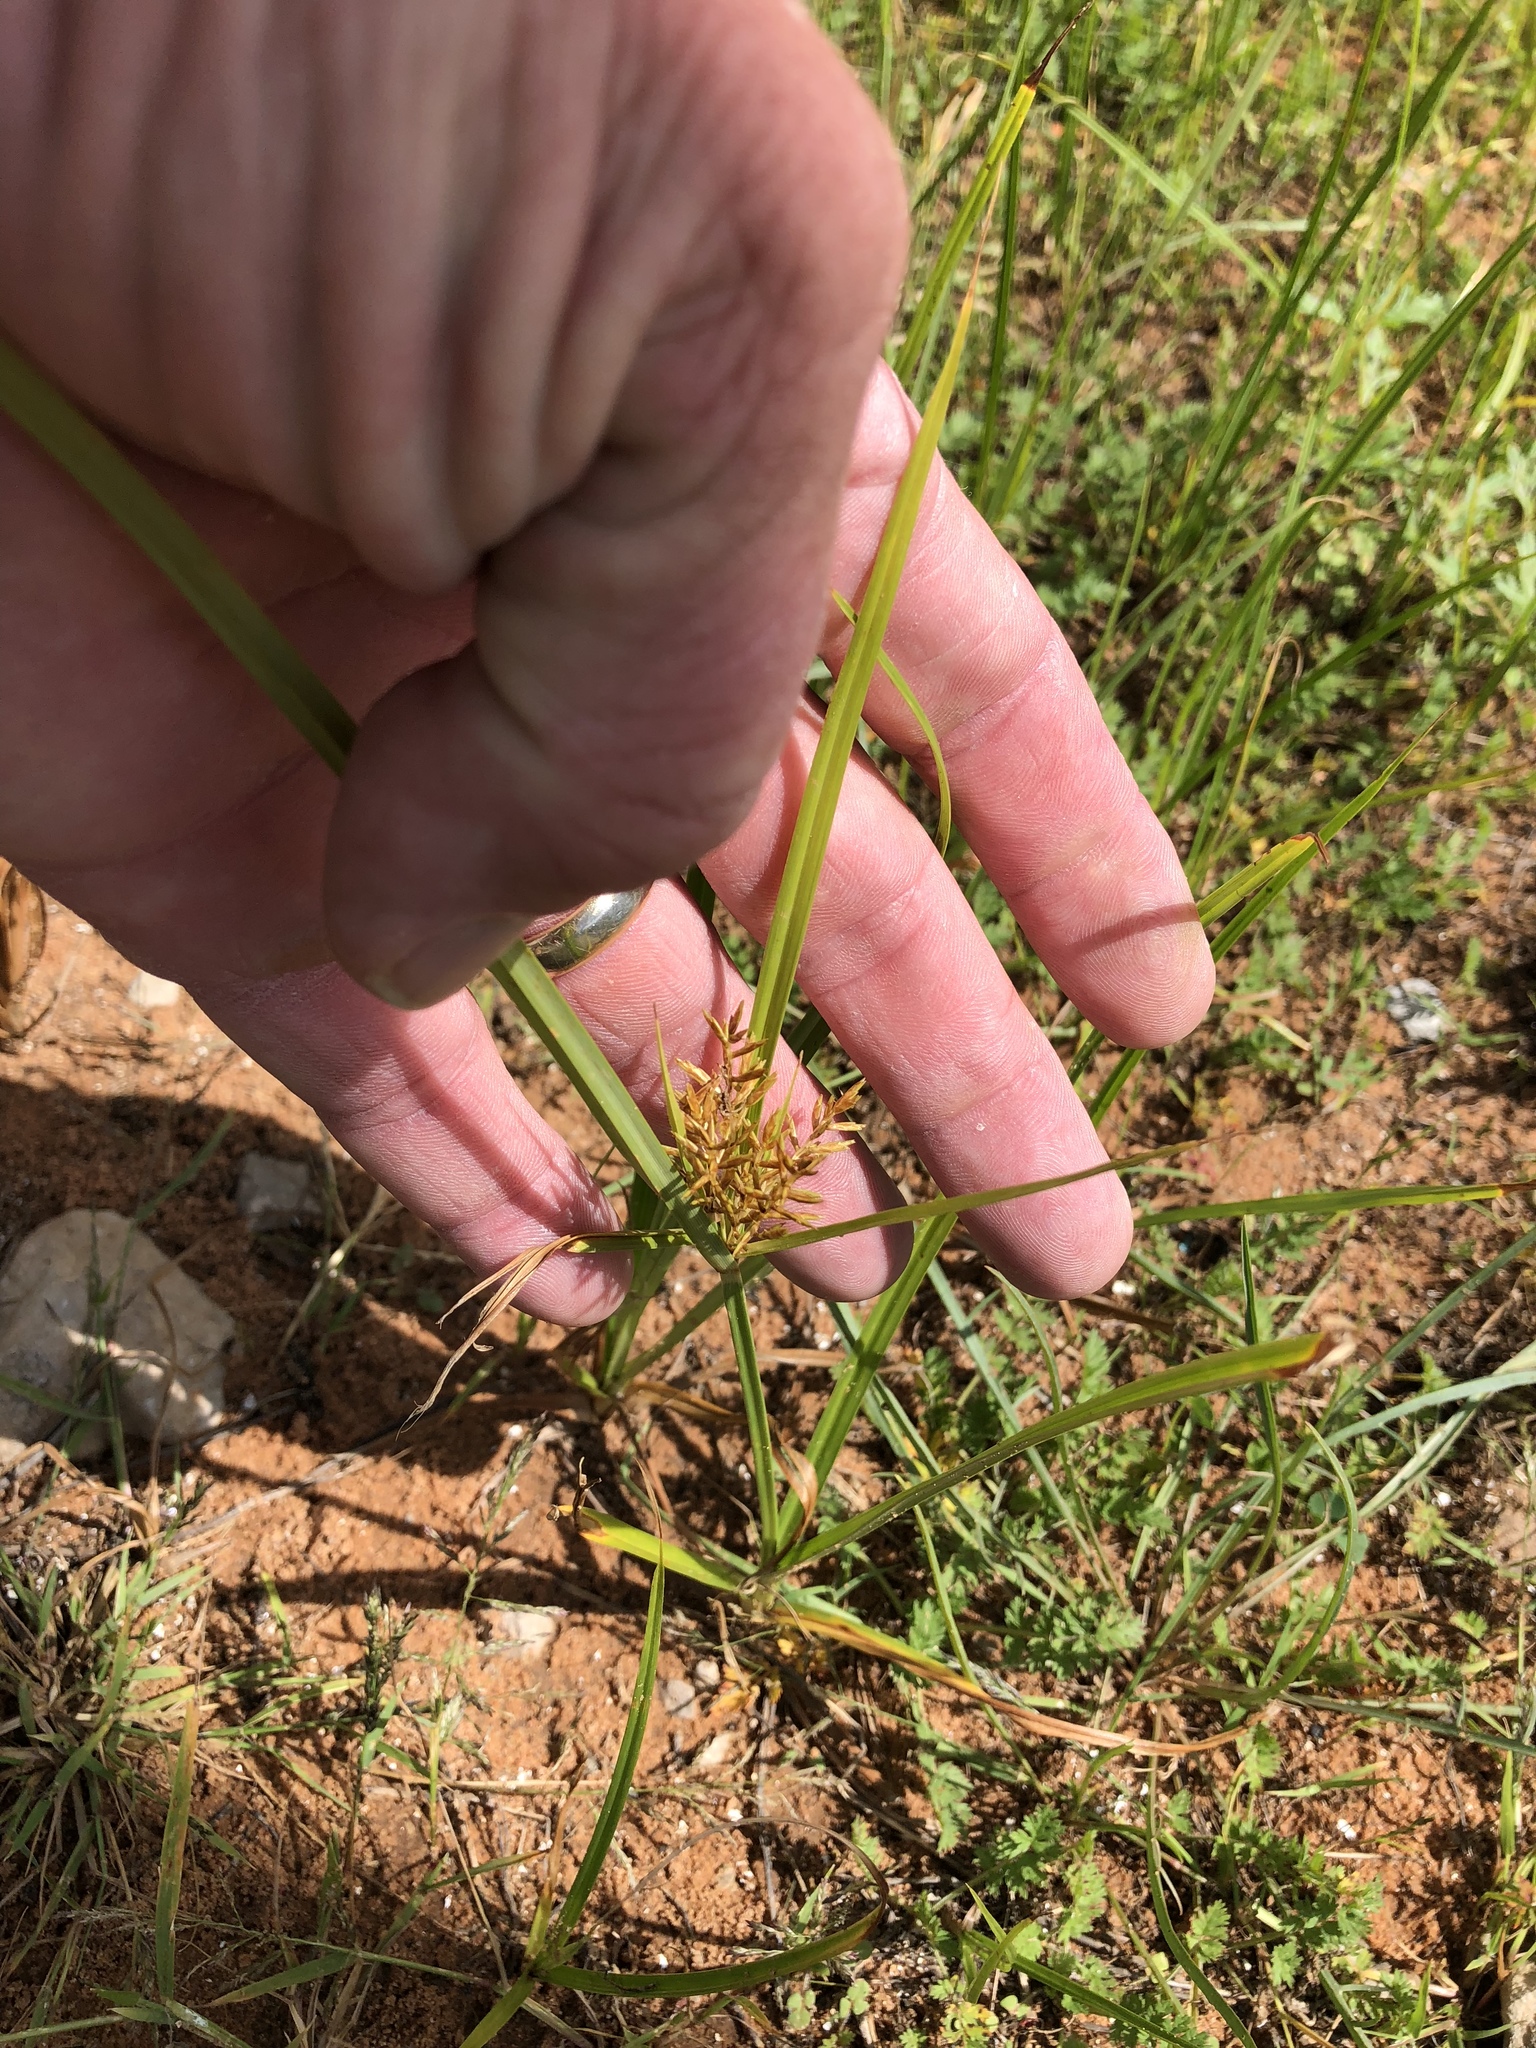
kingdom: Plantae
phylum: Tracheophyta
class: Liliopsida
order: Poales
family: Cyperaceae
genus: Cyperus
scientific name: Cyperus esculentus
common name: Yellow nutsedge
